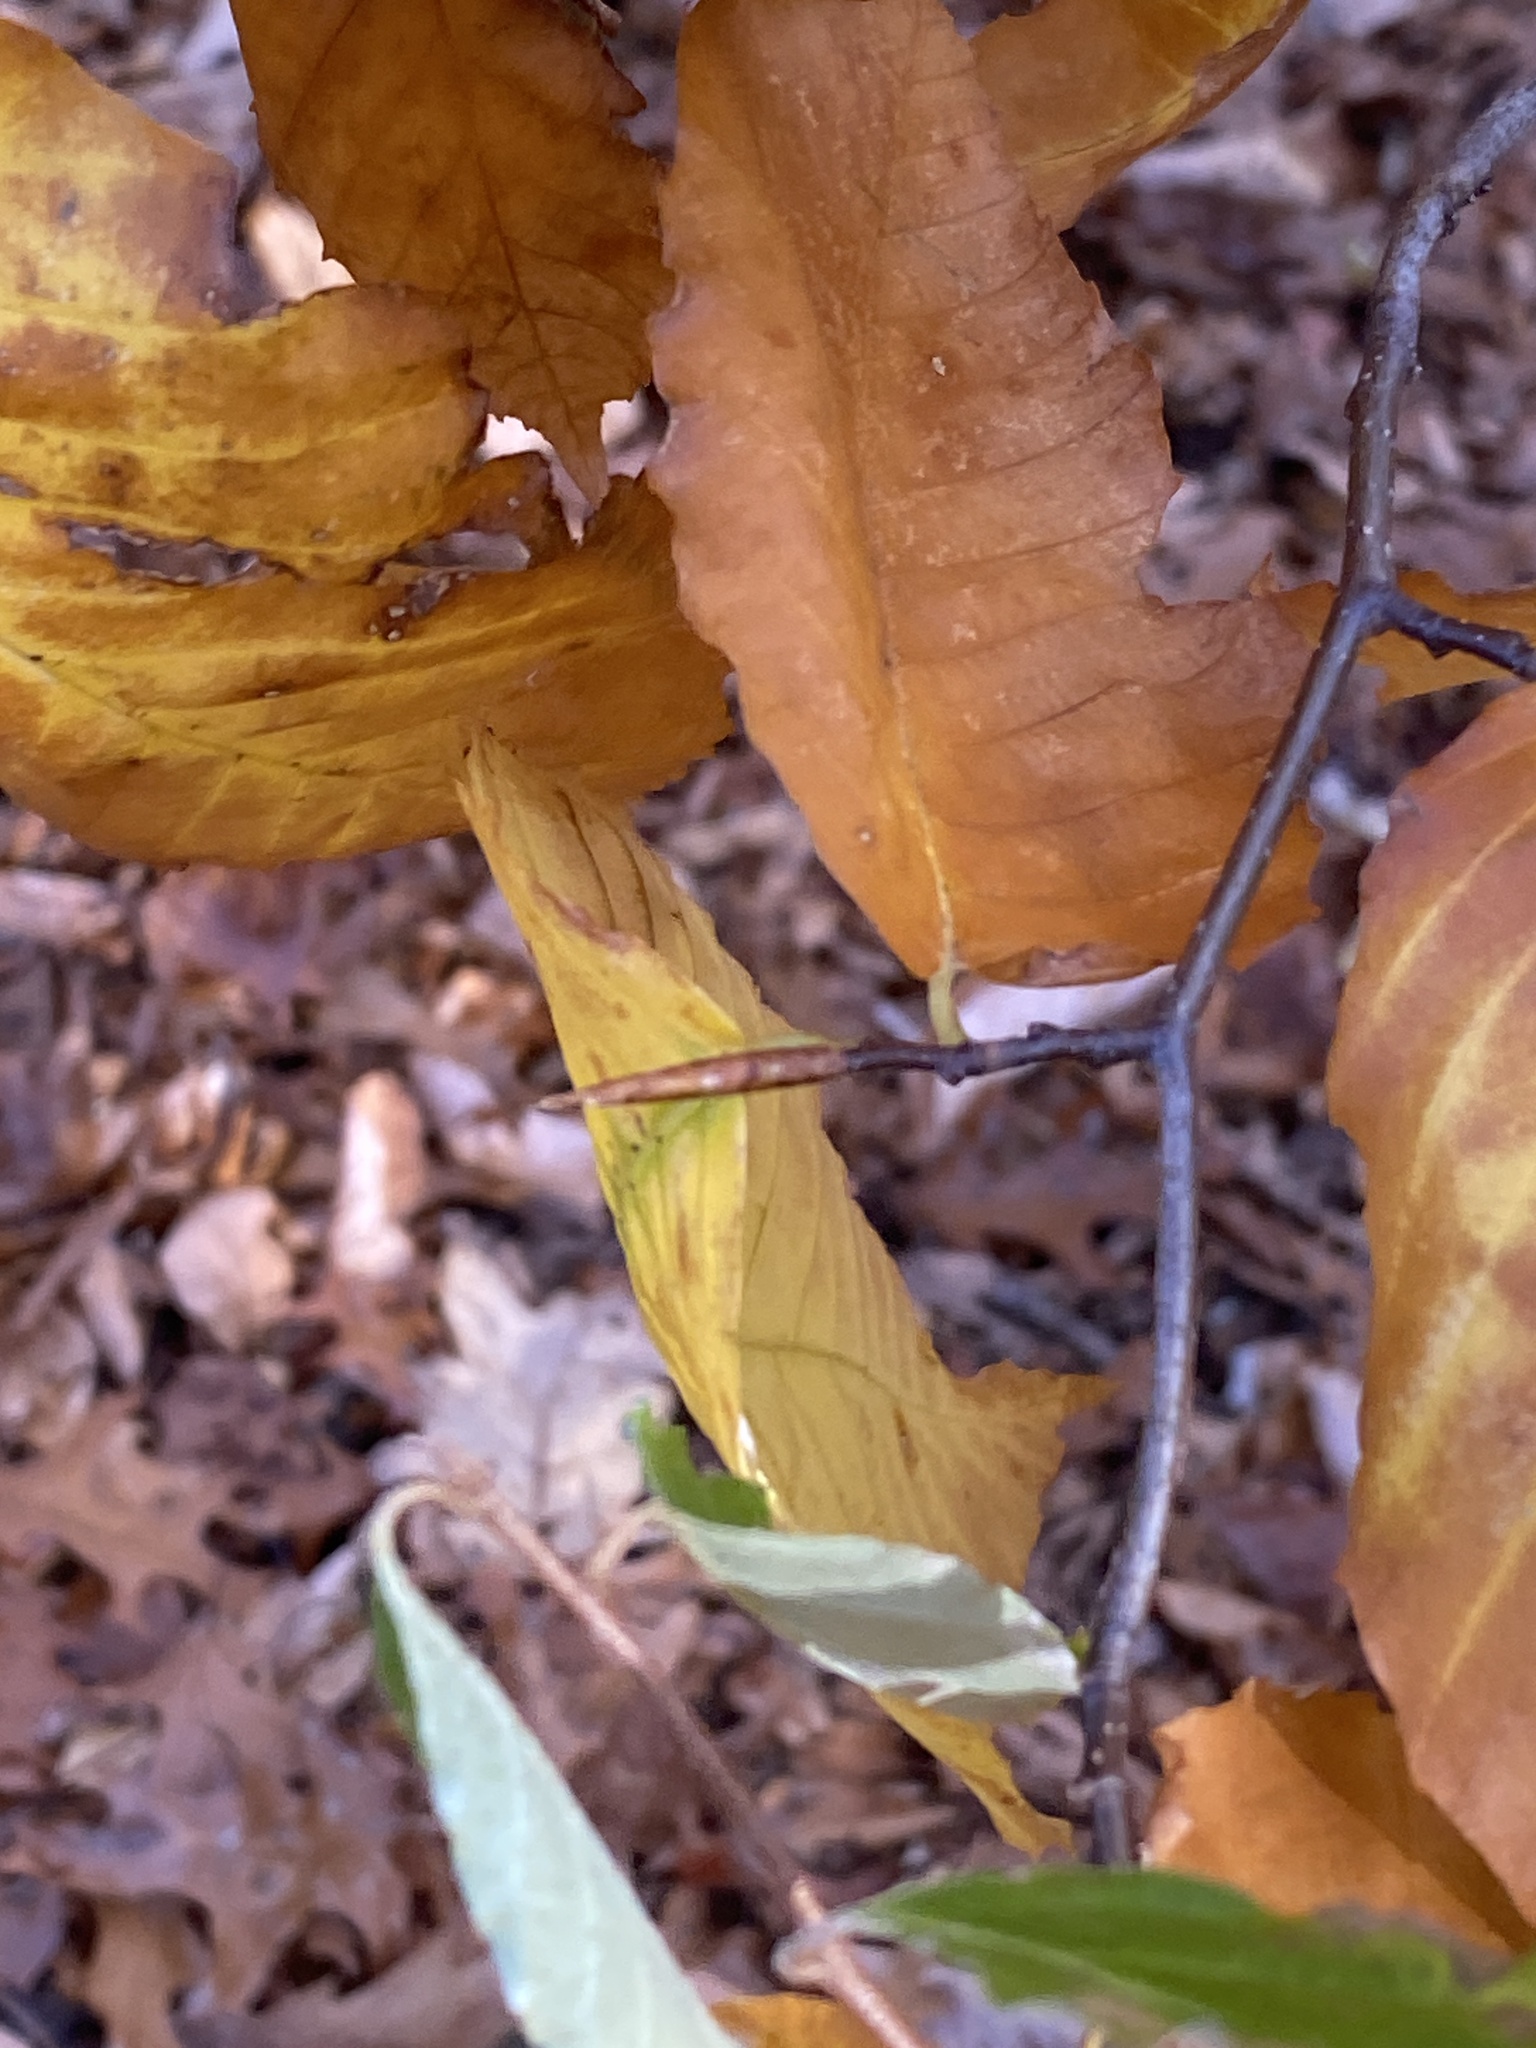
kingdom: Plantae
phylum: Tracheophyta
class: Magnoliopsida
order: Fagales
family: Fagaceae
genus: Fagus
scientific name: Fagus grandifolia
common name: American beech
